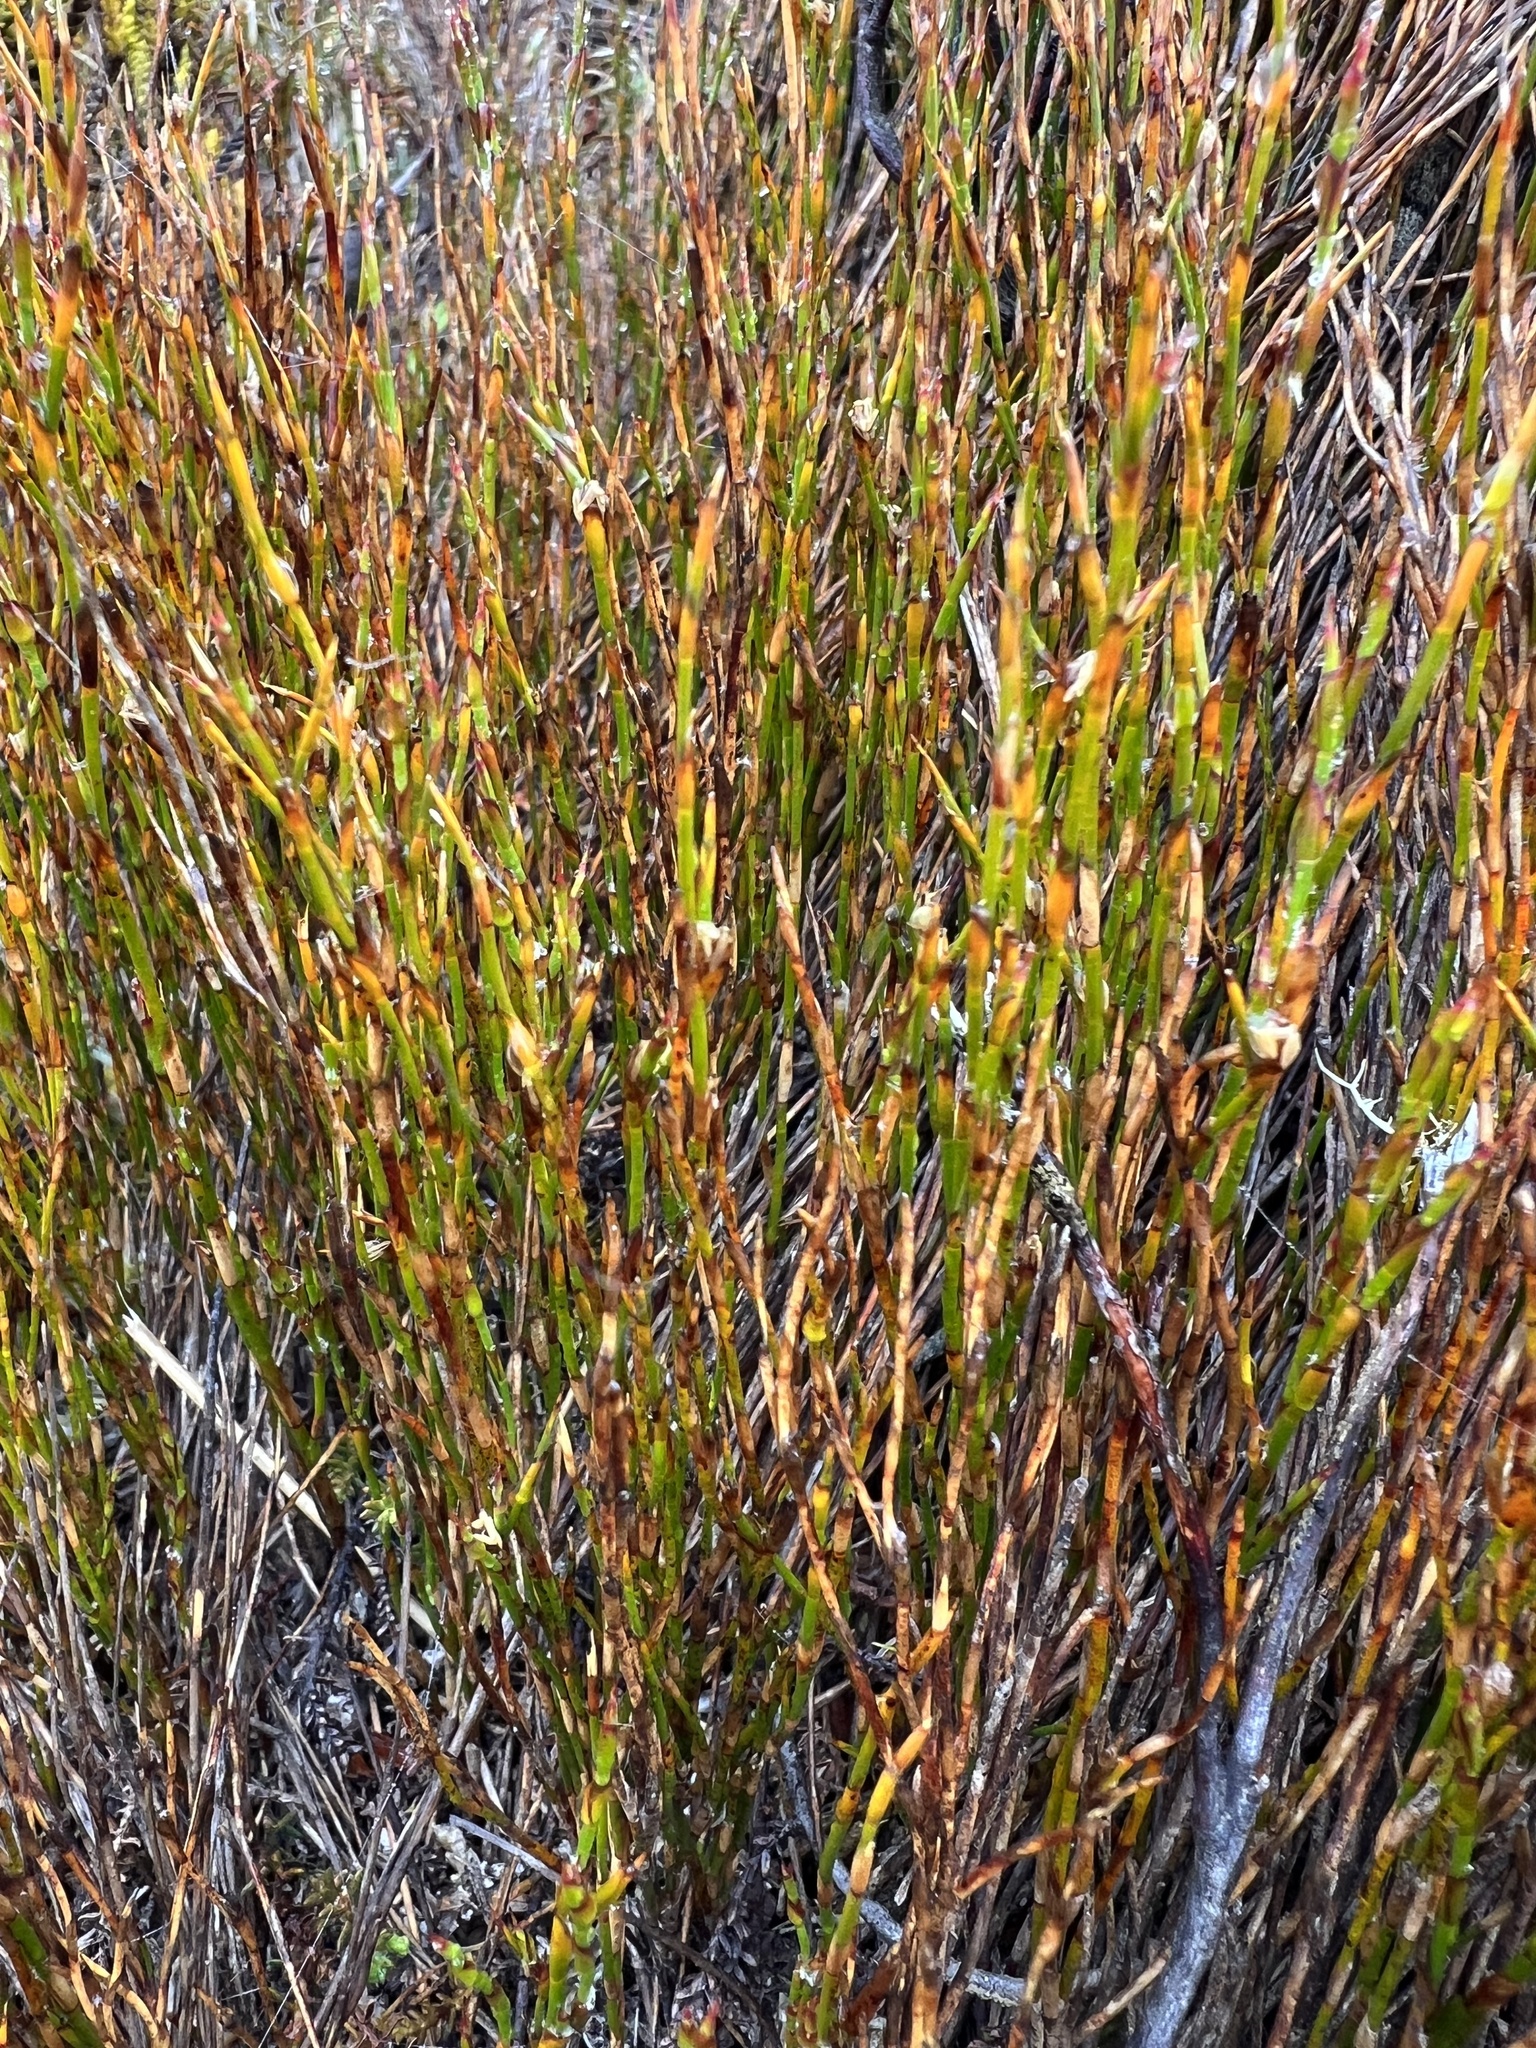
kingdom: Plantae
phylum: Tracheophyta
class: Liliopsida
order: Poales
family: Restionaceae
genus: Empodisma
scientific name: Empodisma minus
